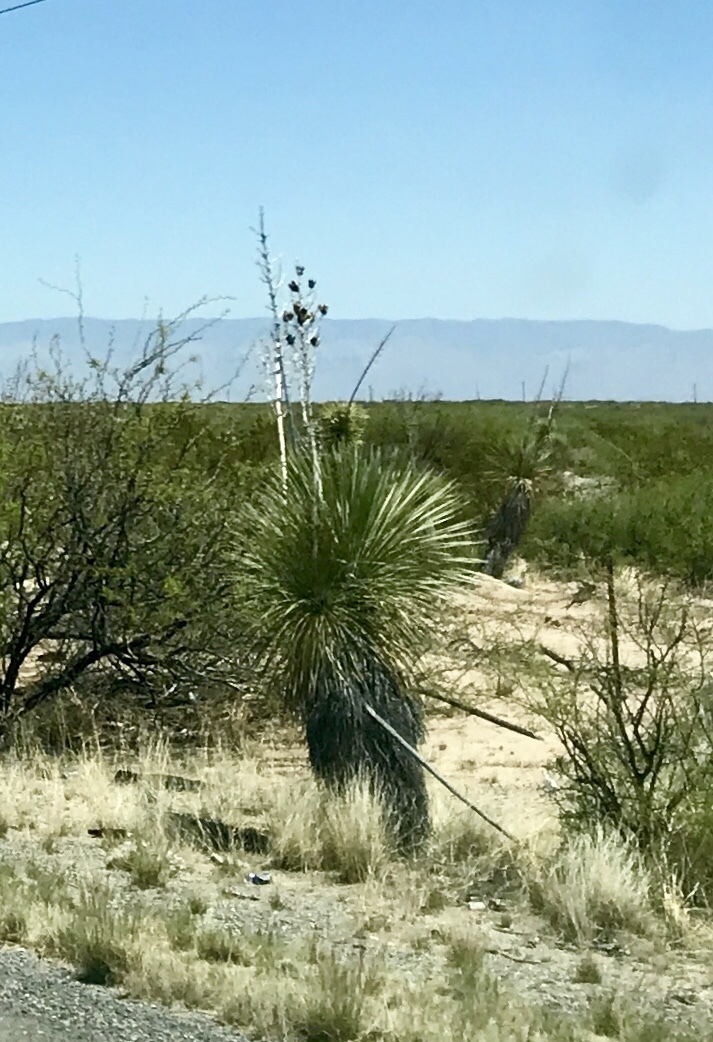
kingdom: Plantae
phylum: Tracheophyta
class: Liliopsida
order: Asparagales
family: Asparagaceae
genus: Yucca
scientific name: Yucca elata
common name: Palmella
